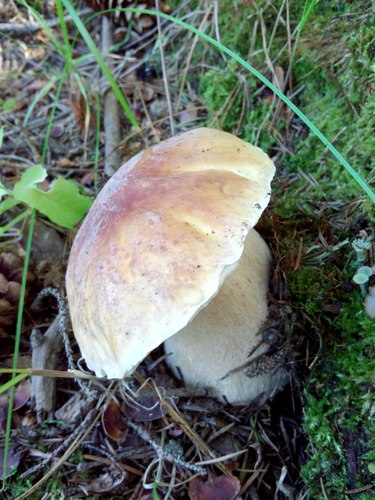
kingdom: Fungi
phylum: Basidiomycota
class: Agaricomycetes
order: Boletales
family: Boletaceae
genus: Boletus
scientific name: Boletus edulis
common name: Cep
